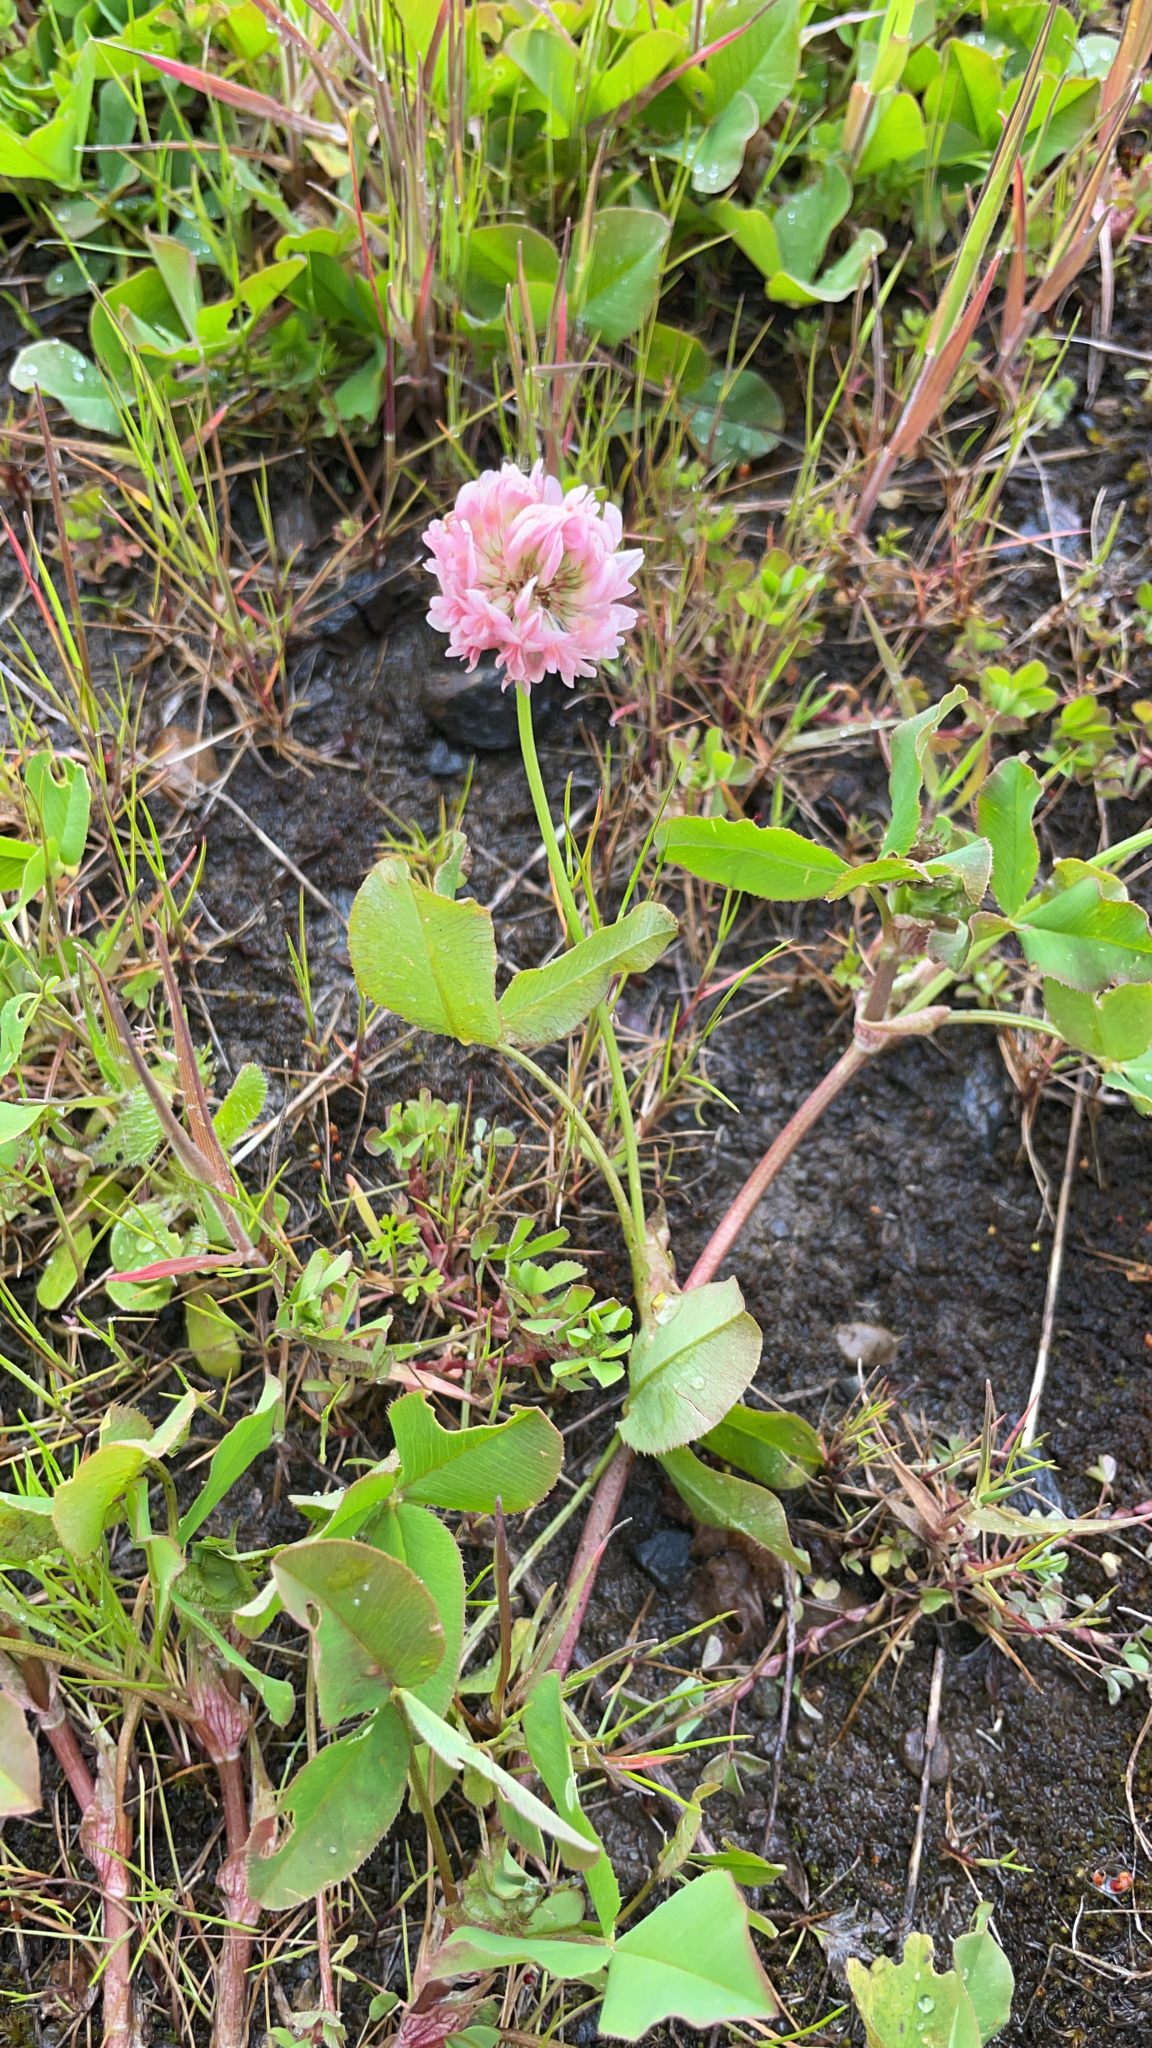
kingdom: Plantae
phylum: Tracheophyta
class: Magnoliopsida
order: Fabales
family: Fabaceae
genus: Trifolium
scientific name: Trifolium hybridum
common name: Alsike clover
